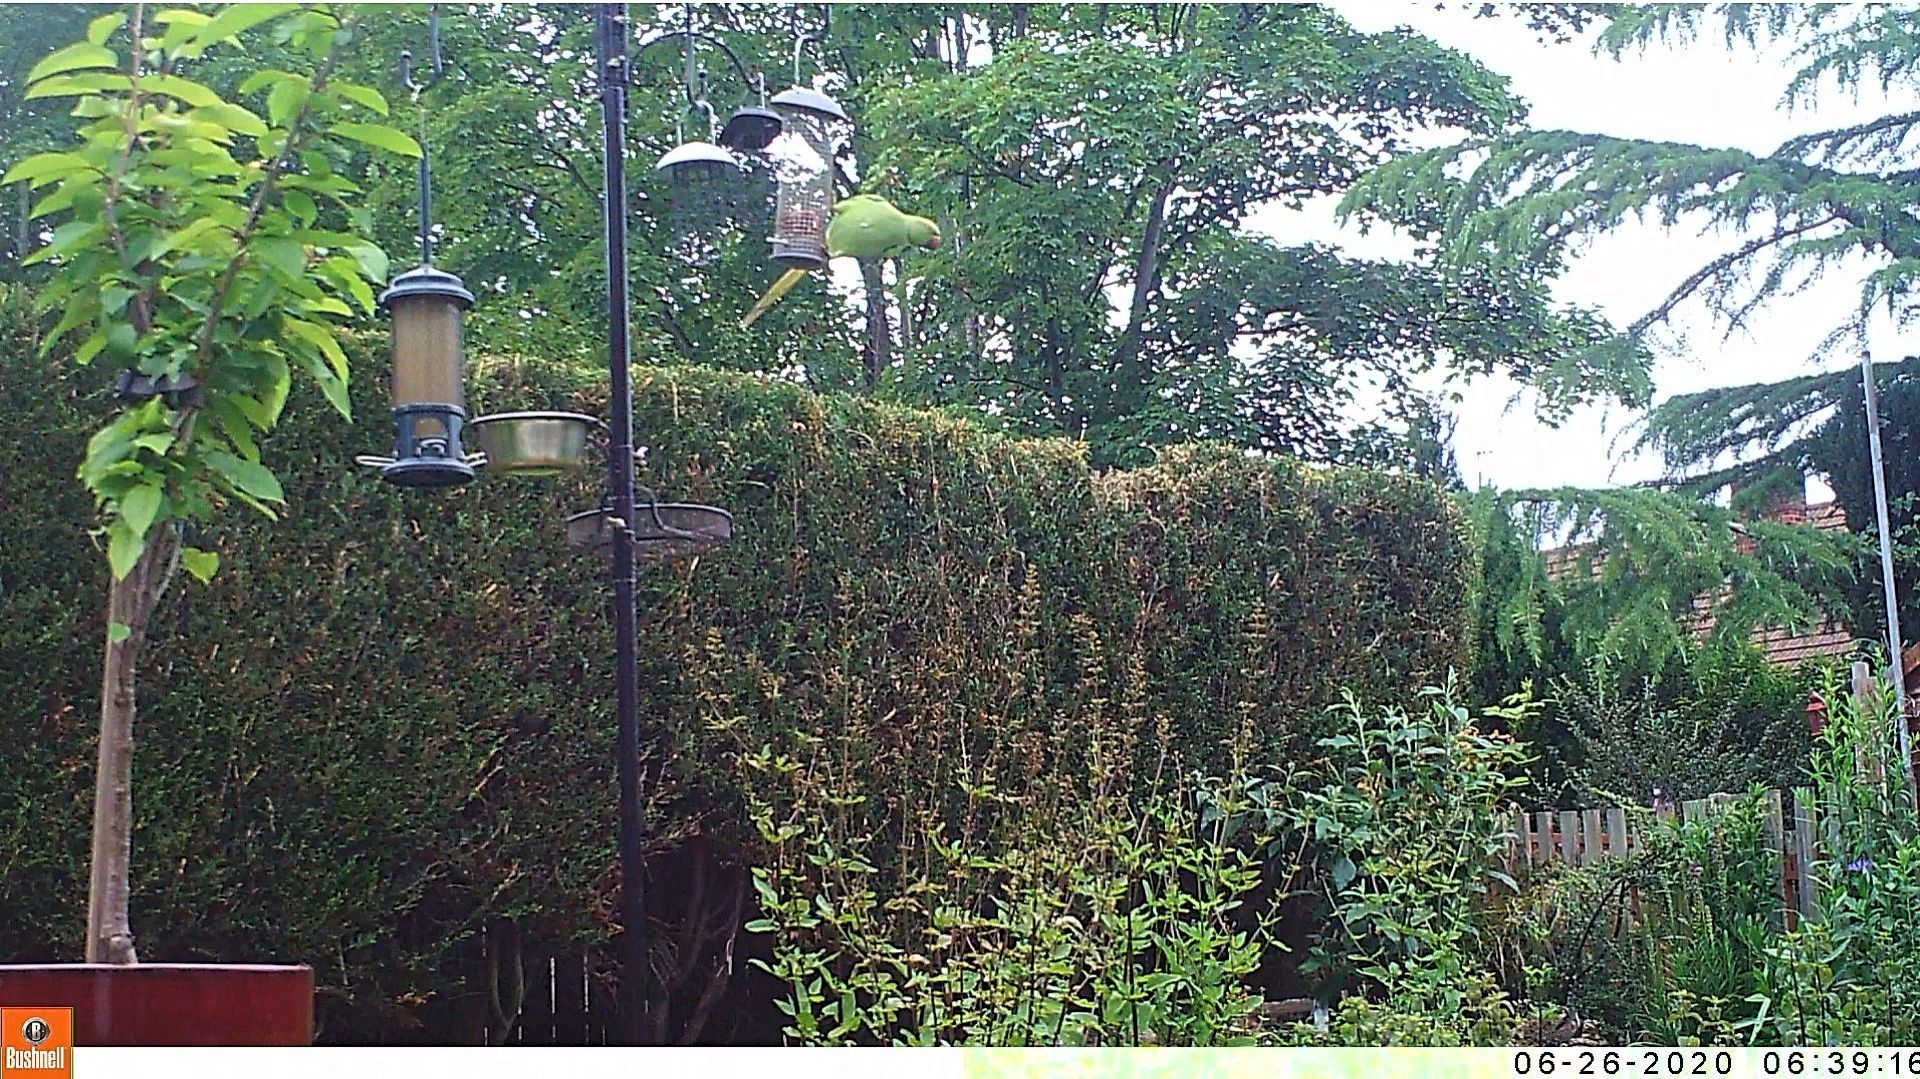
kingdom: Animalia
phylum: Chordata
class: Aves
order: Psittaciformes
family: Psittacidae
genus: Psittacula
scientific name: Psittacula krameri
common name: Rose-ringed parakeet
